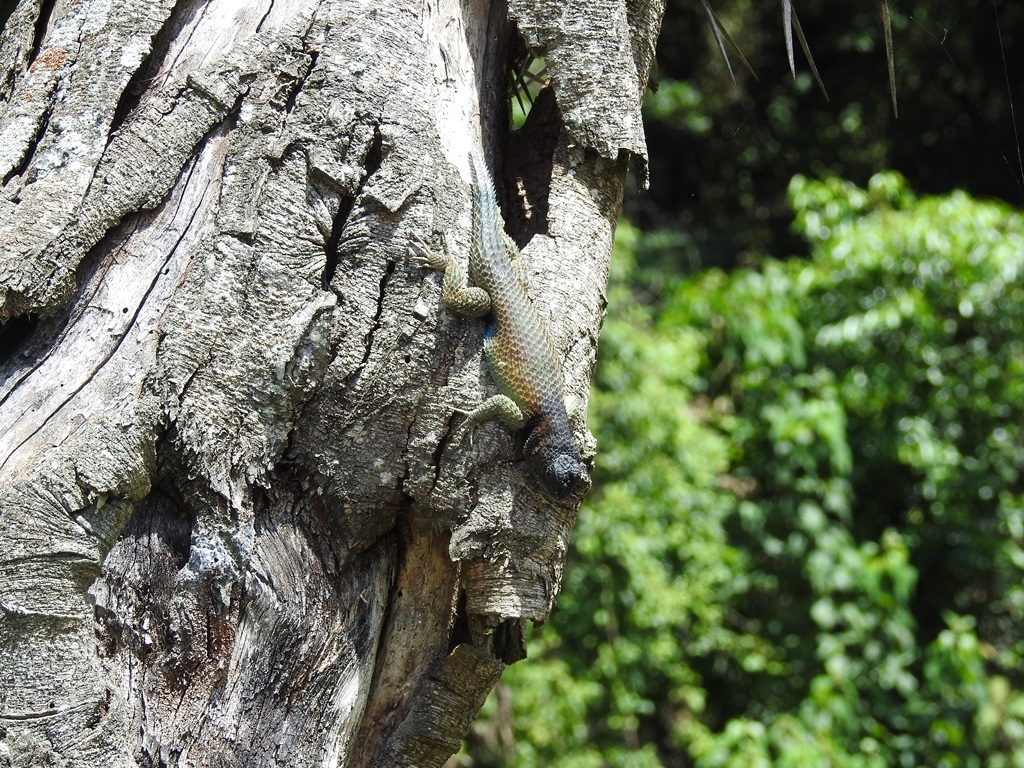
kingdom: Animalia
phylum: Chordata
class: Squamata
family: Phrynosomatidae
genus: Sceloporus
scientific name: Sceloporus serrifer
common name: Blue spiny lizard
